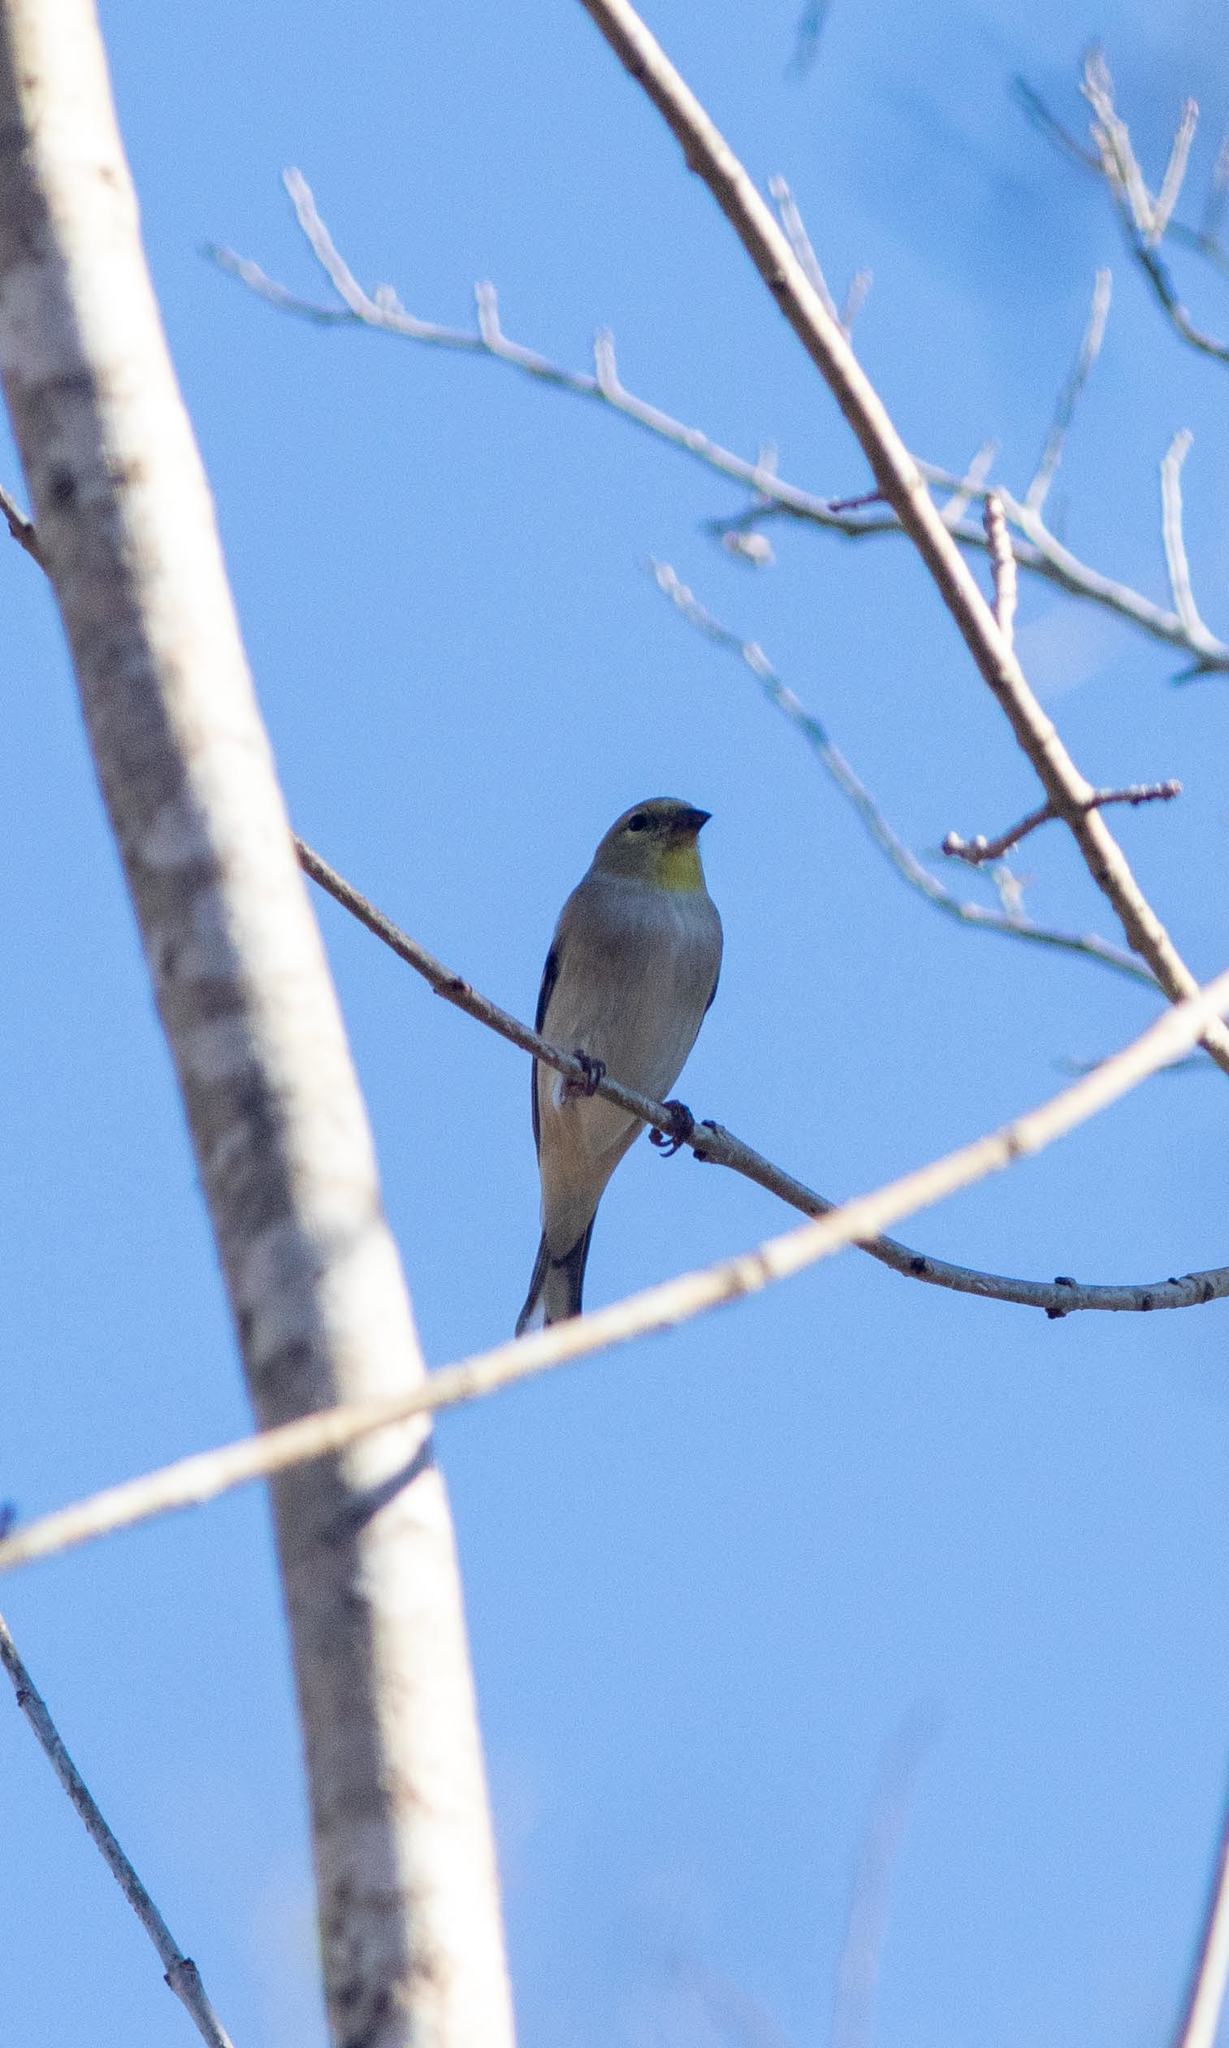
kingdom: Animalia
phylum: Chordata
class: Aves
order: Passeriformes
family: Fringillidae
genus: Spinus
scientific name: Spinus tristis
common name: American goldfinch
